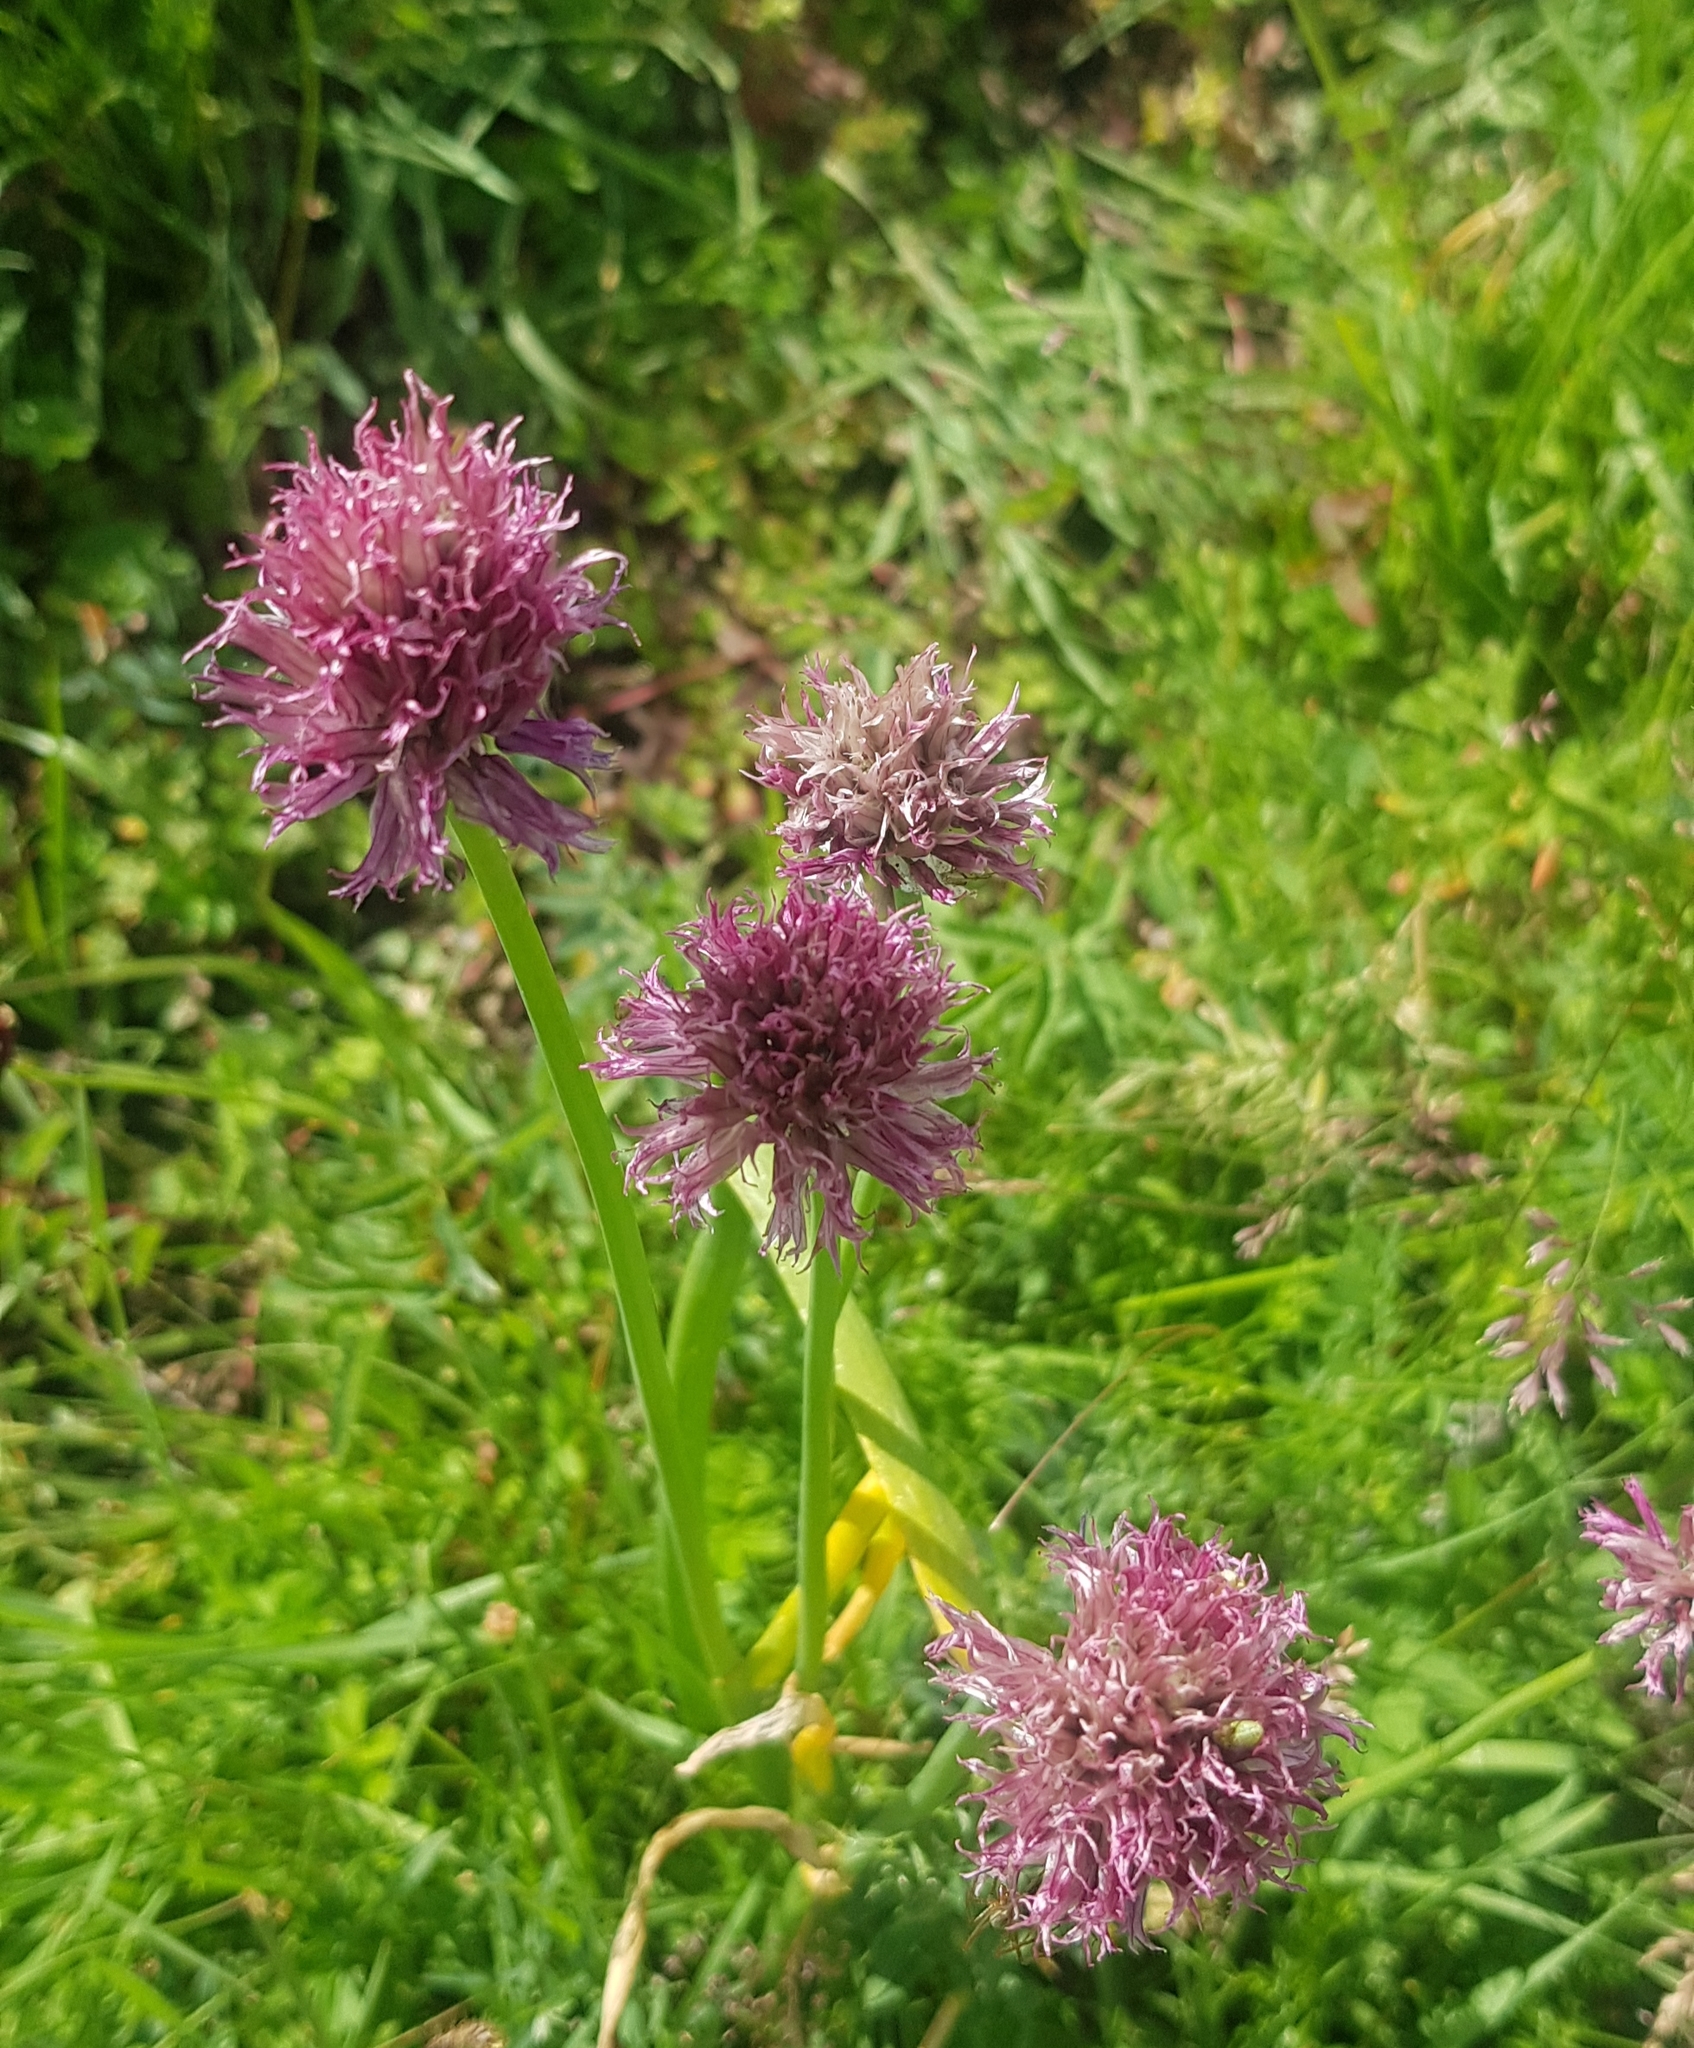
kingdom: Plantae
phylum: Tracheophyta
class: Liliopsida
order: Asparagales
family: Amaryllidaceae
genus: Allium
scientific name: Allium schoenoprasum
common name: Chives
